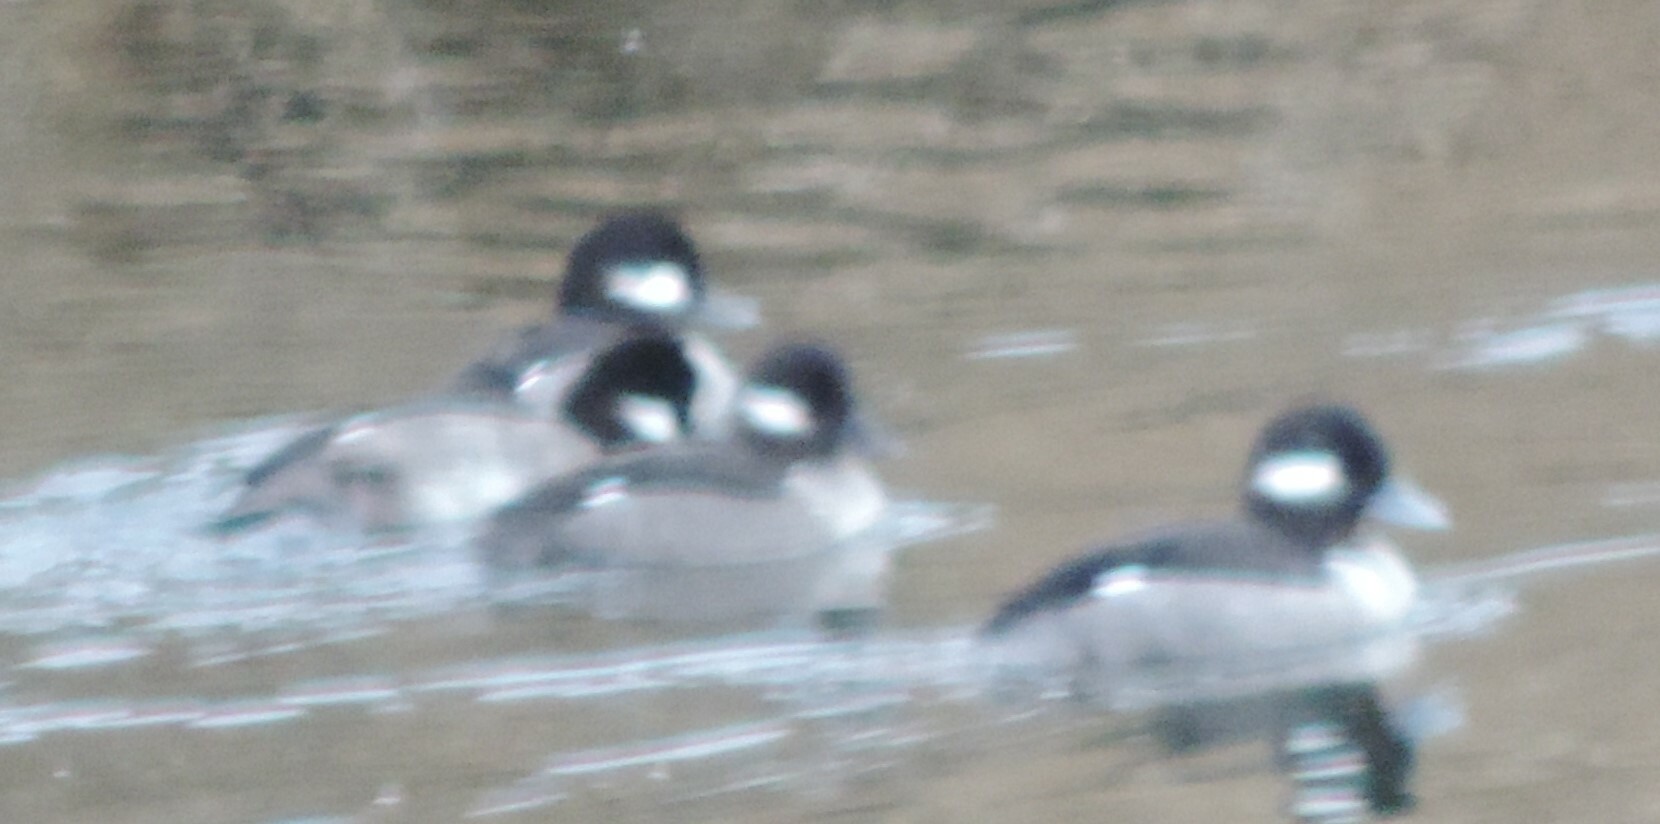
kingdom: Animalia
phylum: Chordata
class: Aves
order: Anseriformes
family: Anatidae
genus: Bucephala
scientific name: Bucephala albeola
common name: Bufflehead
